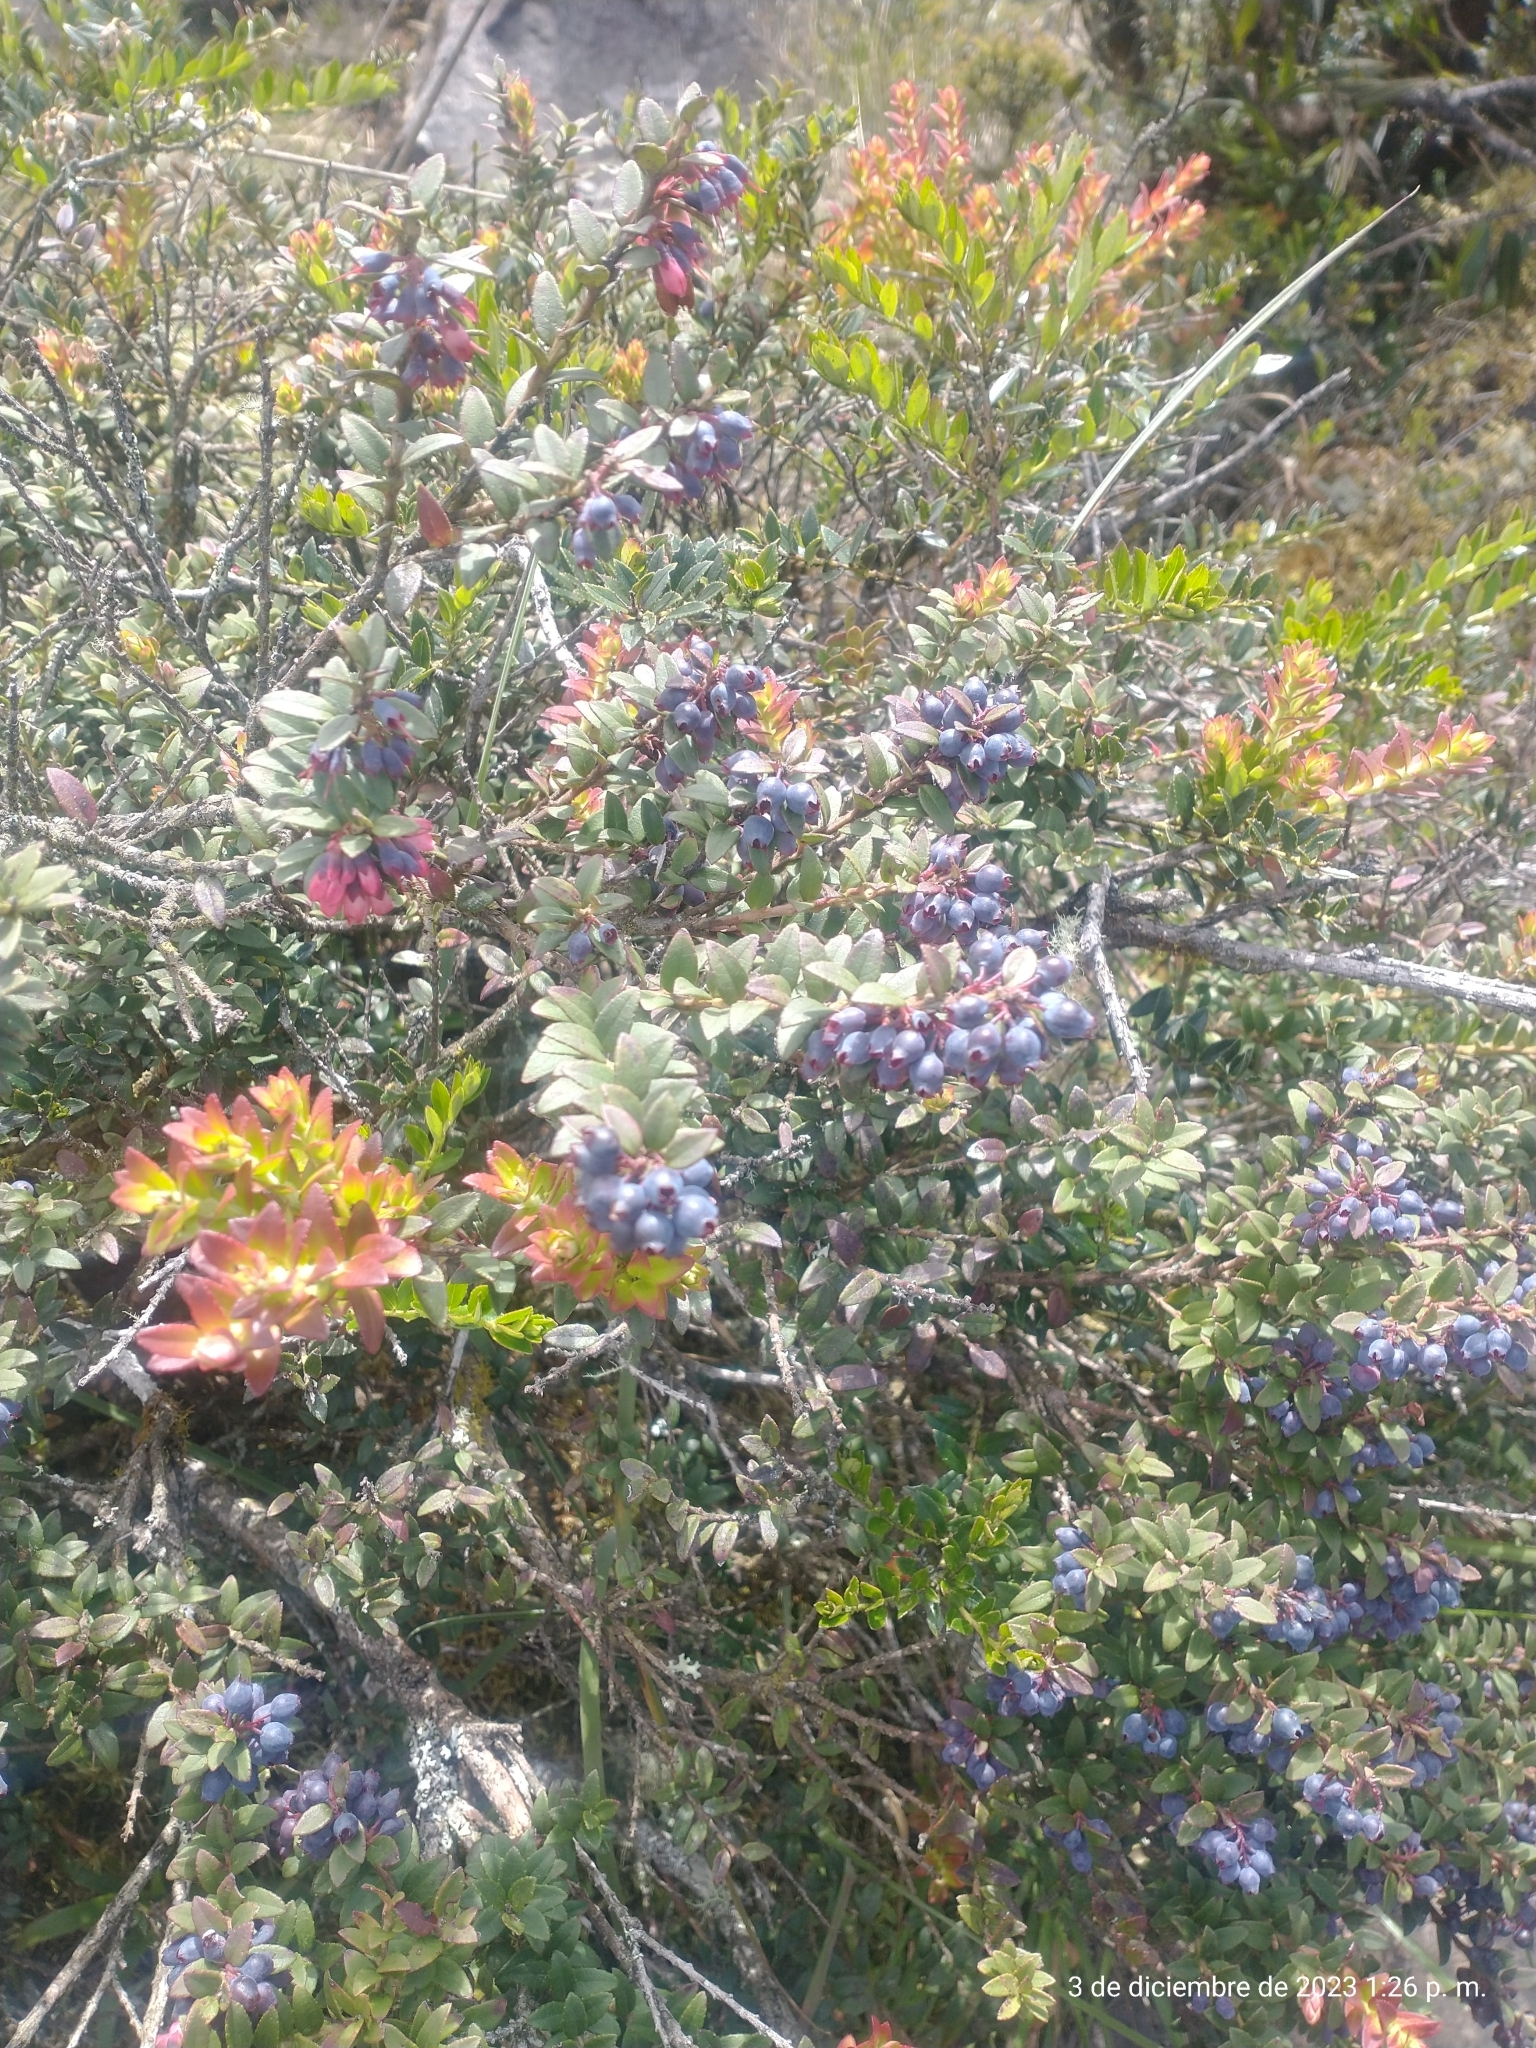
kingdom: Plantae
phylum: Tracheophyta
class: Magnoliopsida
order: Ericales
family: Ericaceae
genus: Vaccinium
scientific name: Vaccinium floribundum
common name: Colombian blueberry
